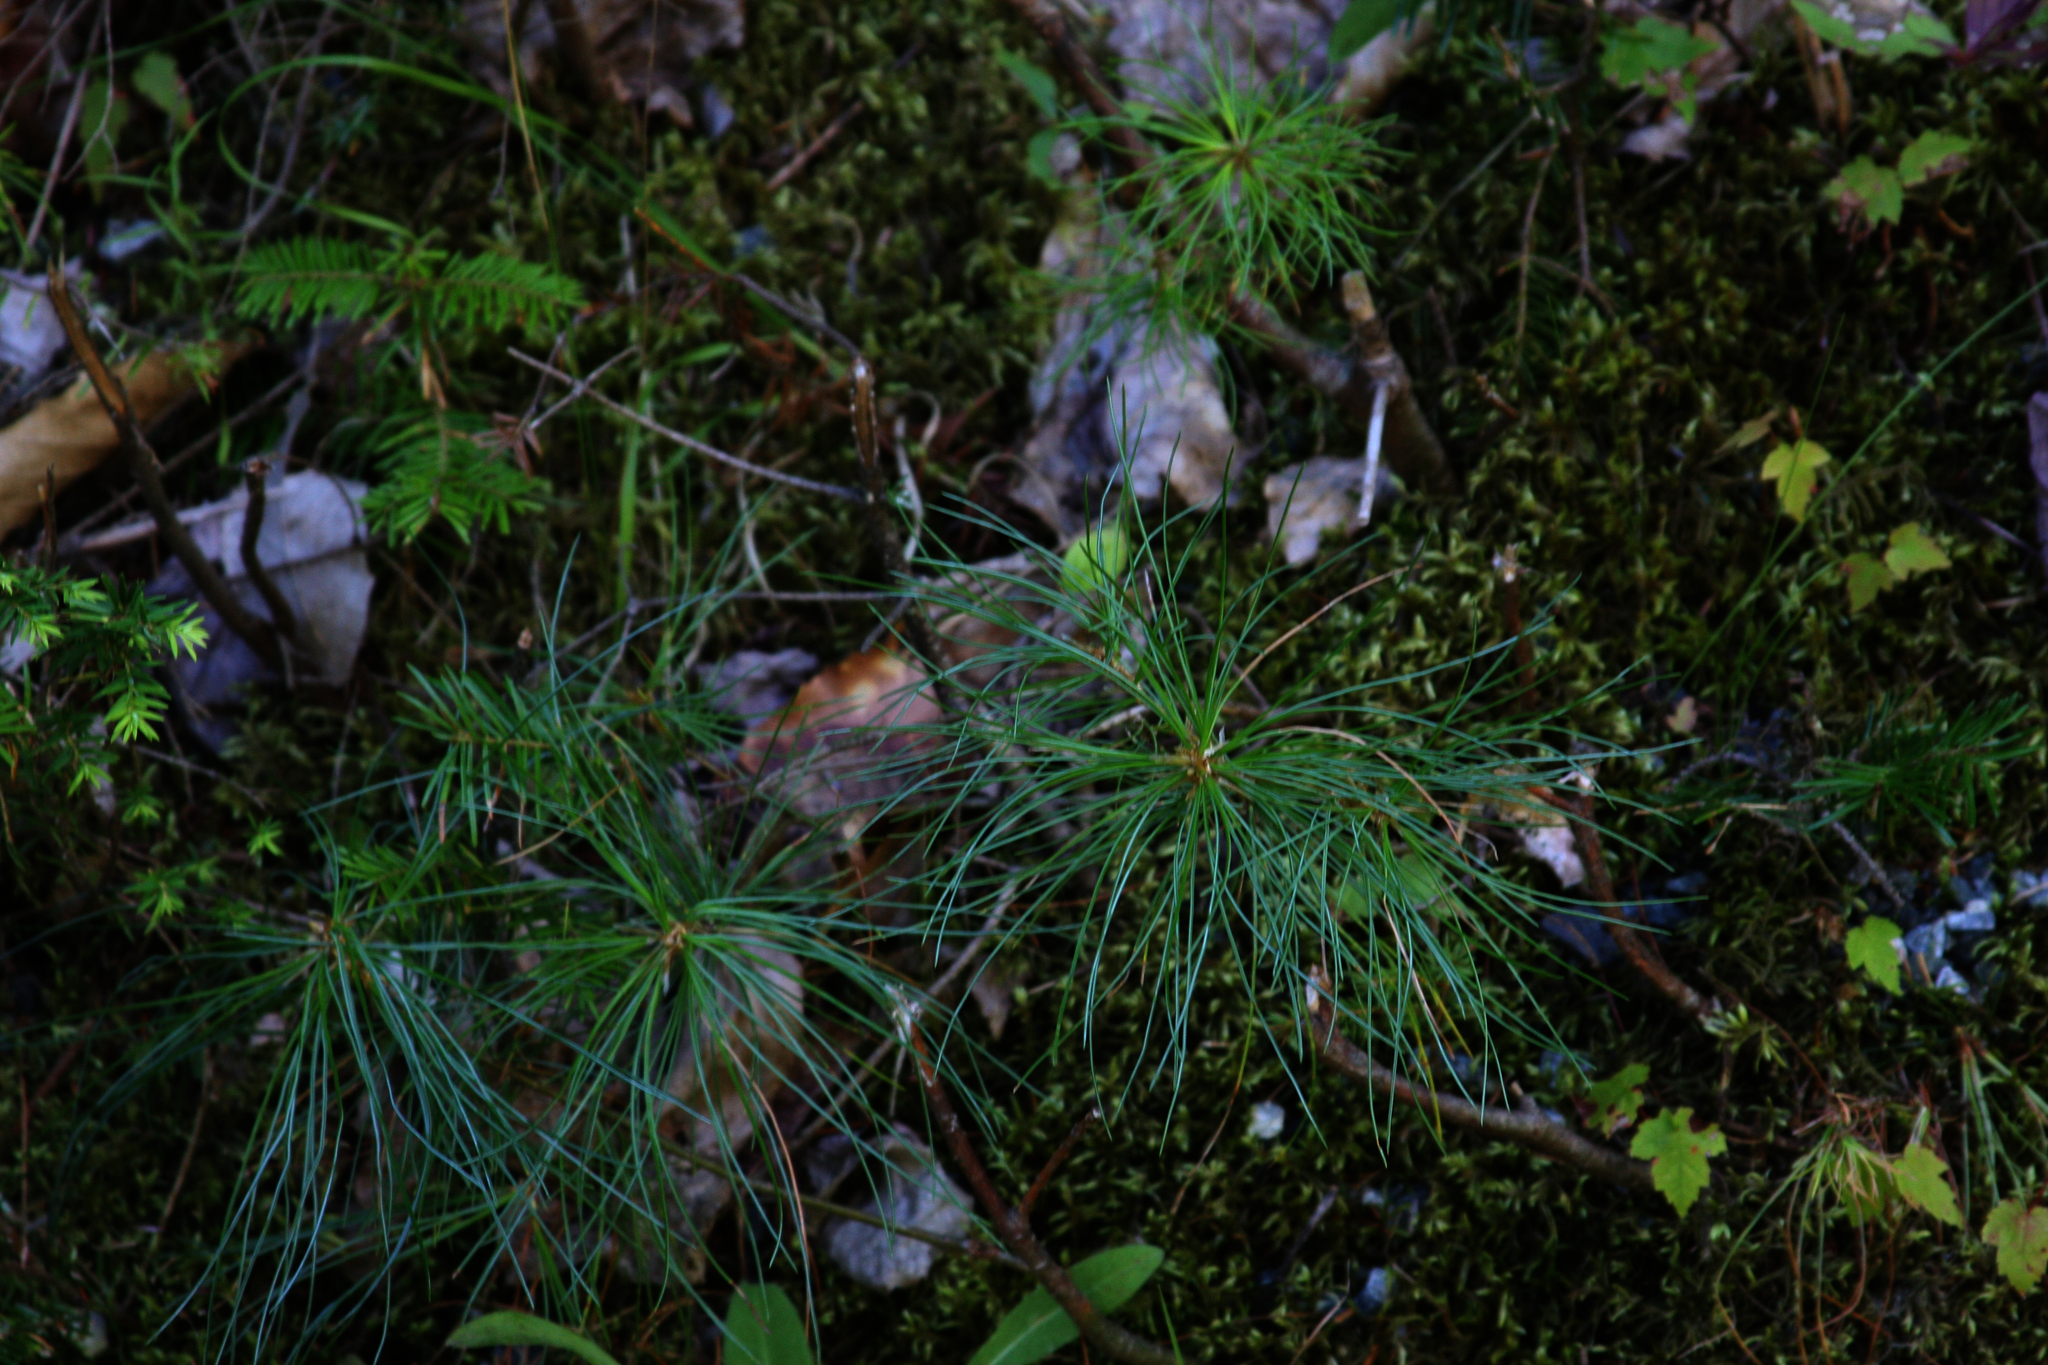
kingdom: Plantae
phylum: Tracheophyta
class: Pinopsida
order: Pinales
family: Pinaceae
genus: Pinus
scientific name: Pinus strobus
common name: Weymouth pine
